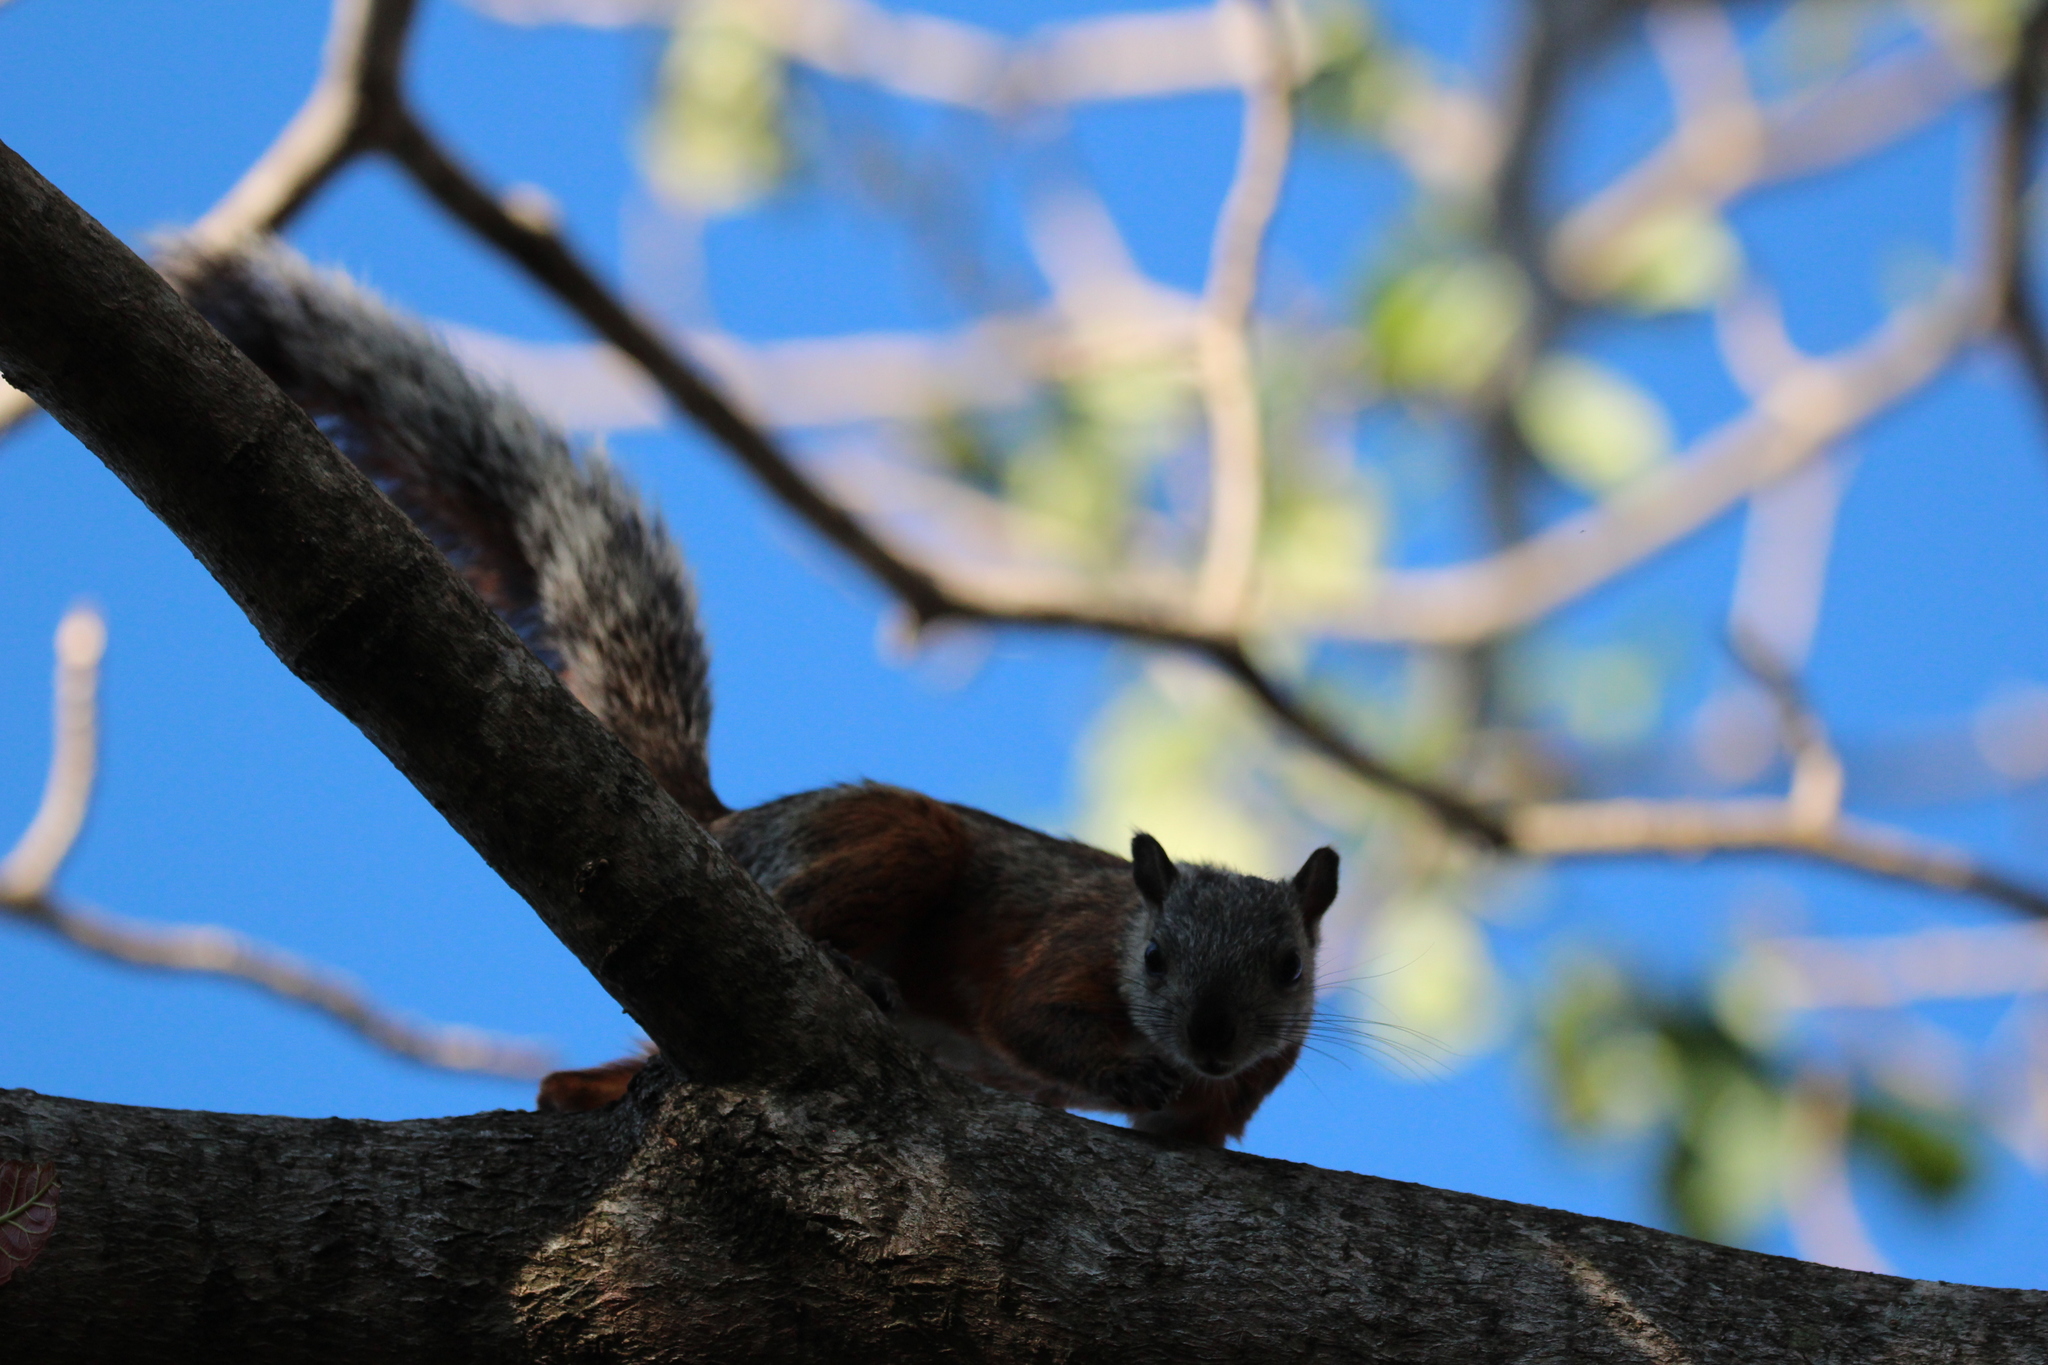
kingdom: Animalia
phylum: Chordata
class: Mammalia
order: Rodentia
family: Sciuridae
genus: Sciurus
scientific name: Sciurus variegatoides
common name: Variegated squirrel
